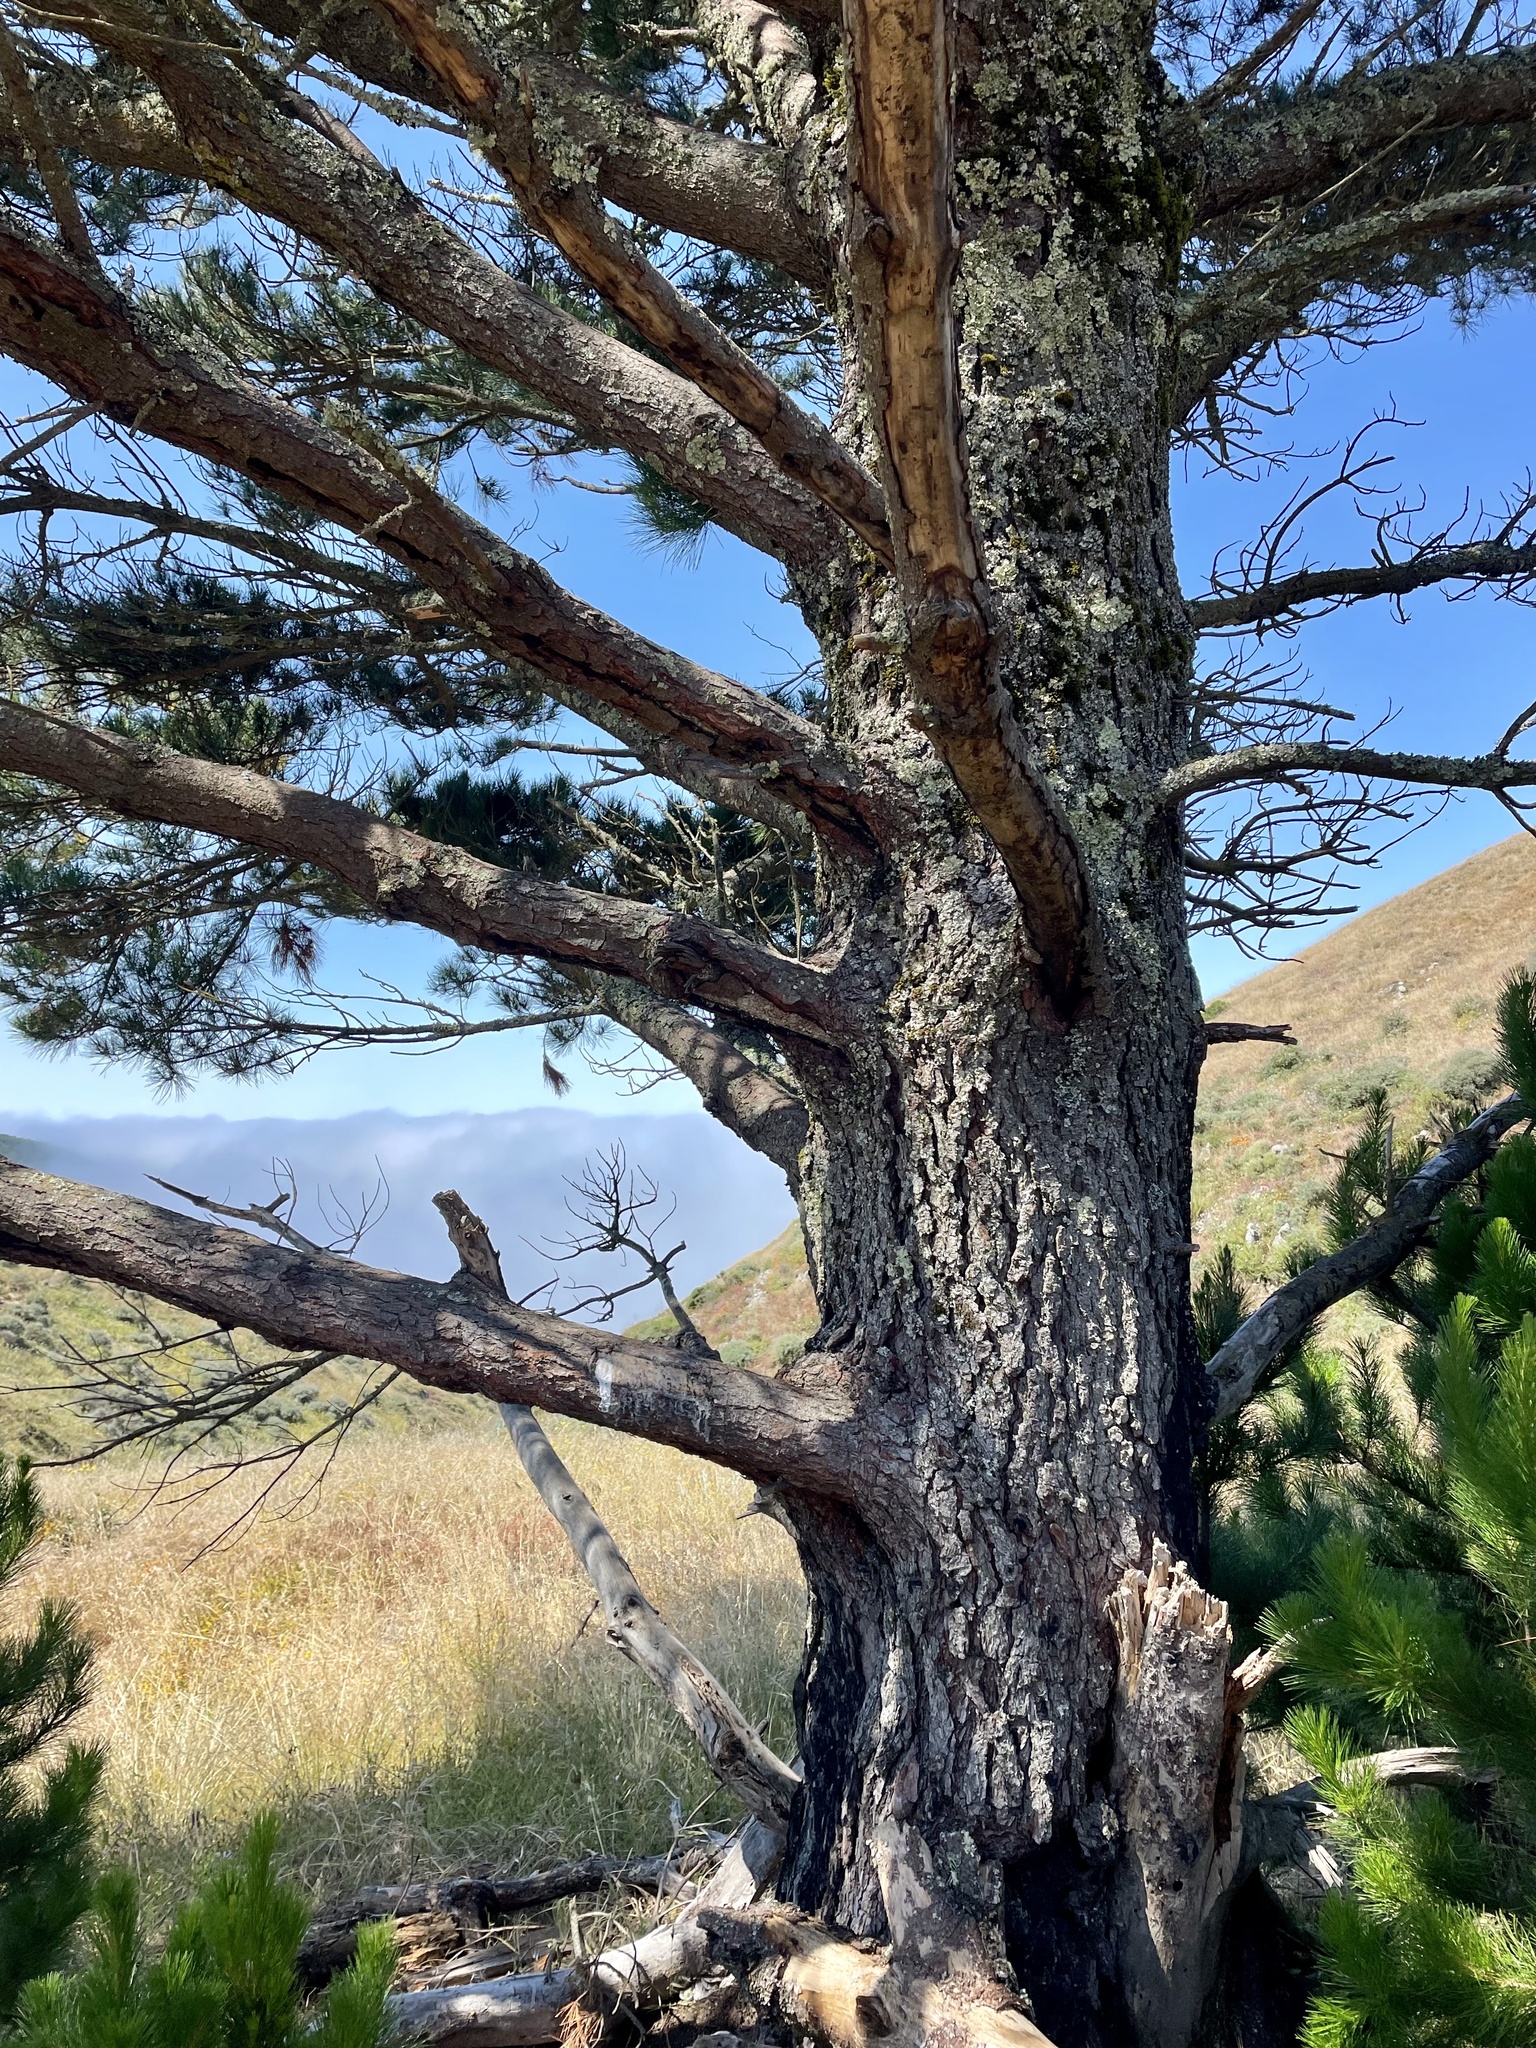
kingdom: Plantae
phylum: Tracheophyta
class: Pinopsida
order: Pinales
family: Pinaceae
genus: Pinus
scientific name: Pinus radiata
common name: Monterey pine
